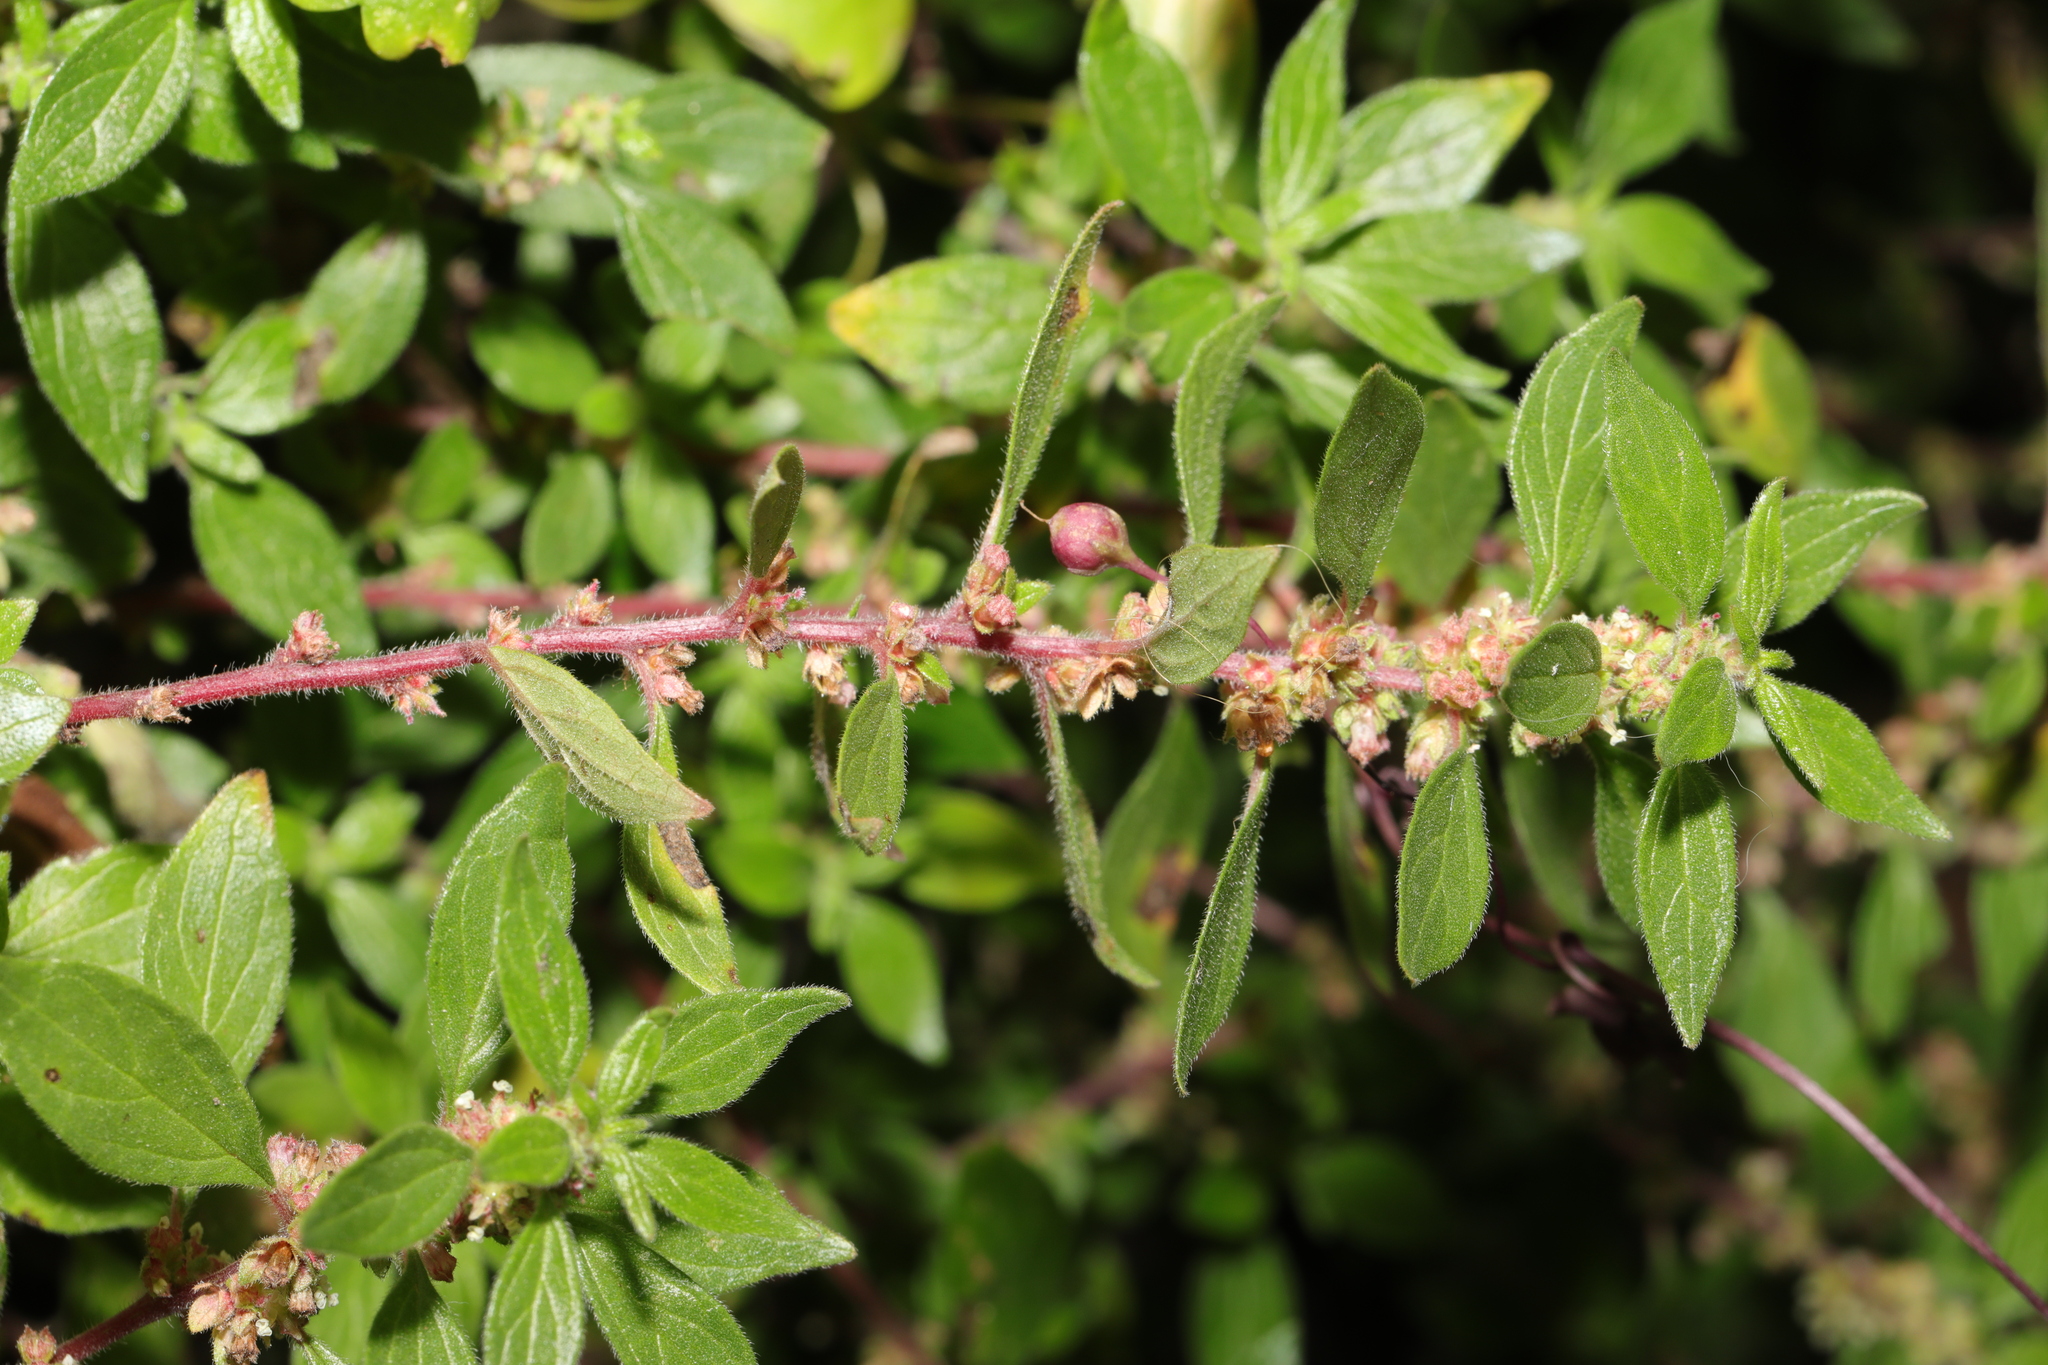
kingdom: Plantae
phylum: Tracheophyta
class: Magnoliopsida
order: Rosales
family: Urticaceae
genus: Parietaria
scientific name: Parietaria judaica
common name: Pellitory-of-the-wall
